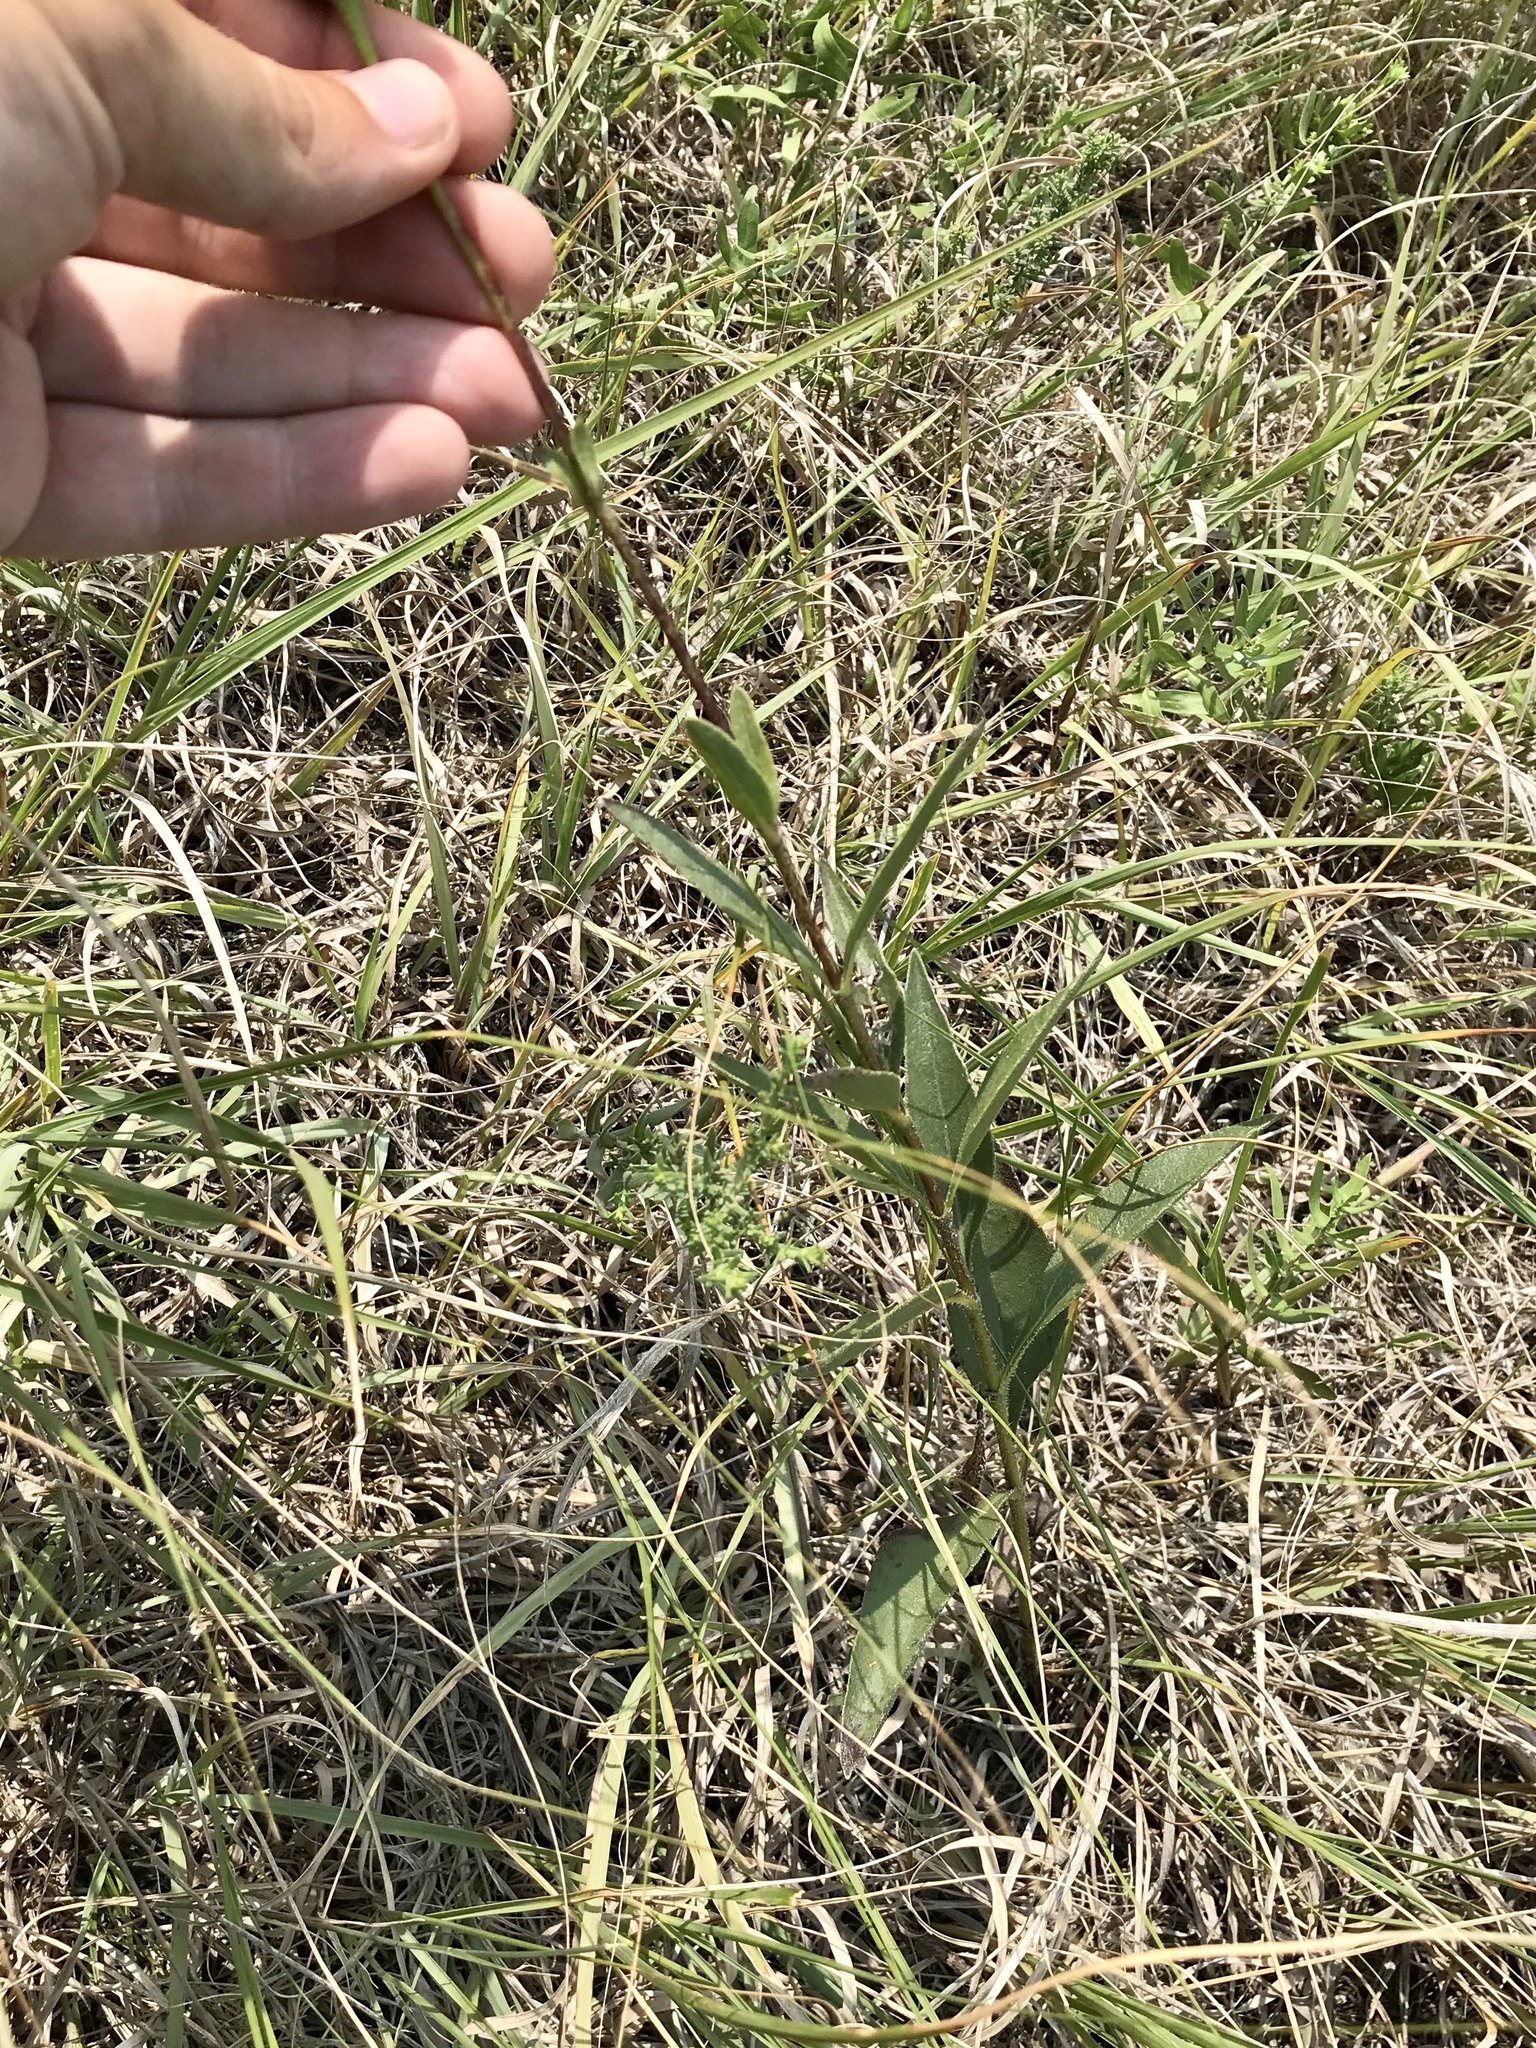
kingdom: Plantae
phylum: Tracheophyta
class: Magnoliopsida
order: Asterales
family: Asteraceae
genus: Helianthus
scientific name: Helianthus pauciflorus
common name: Stiff sunflower
